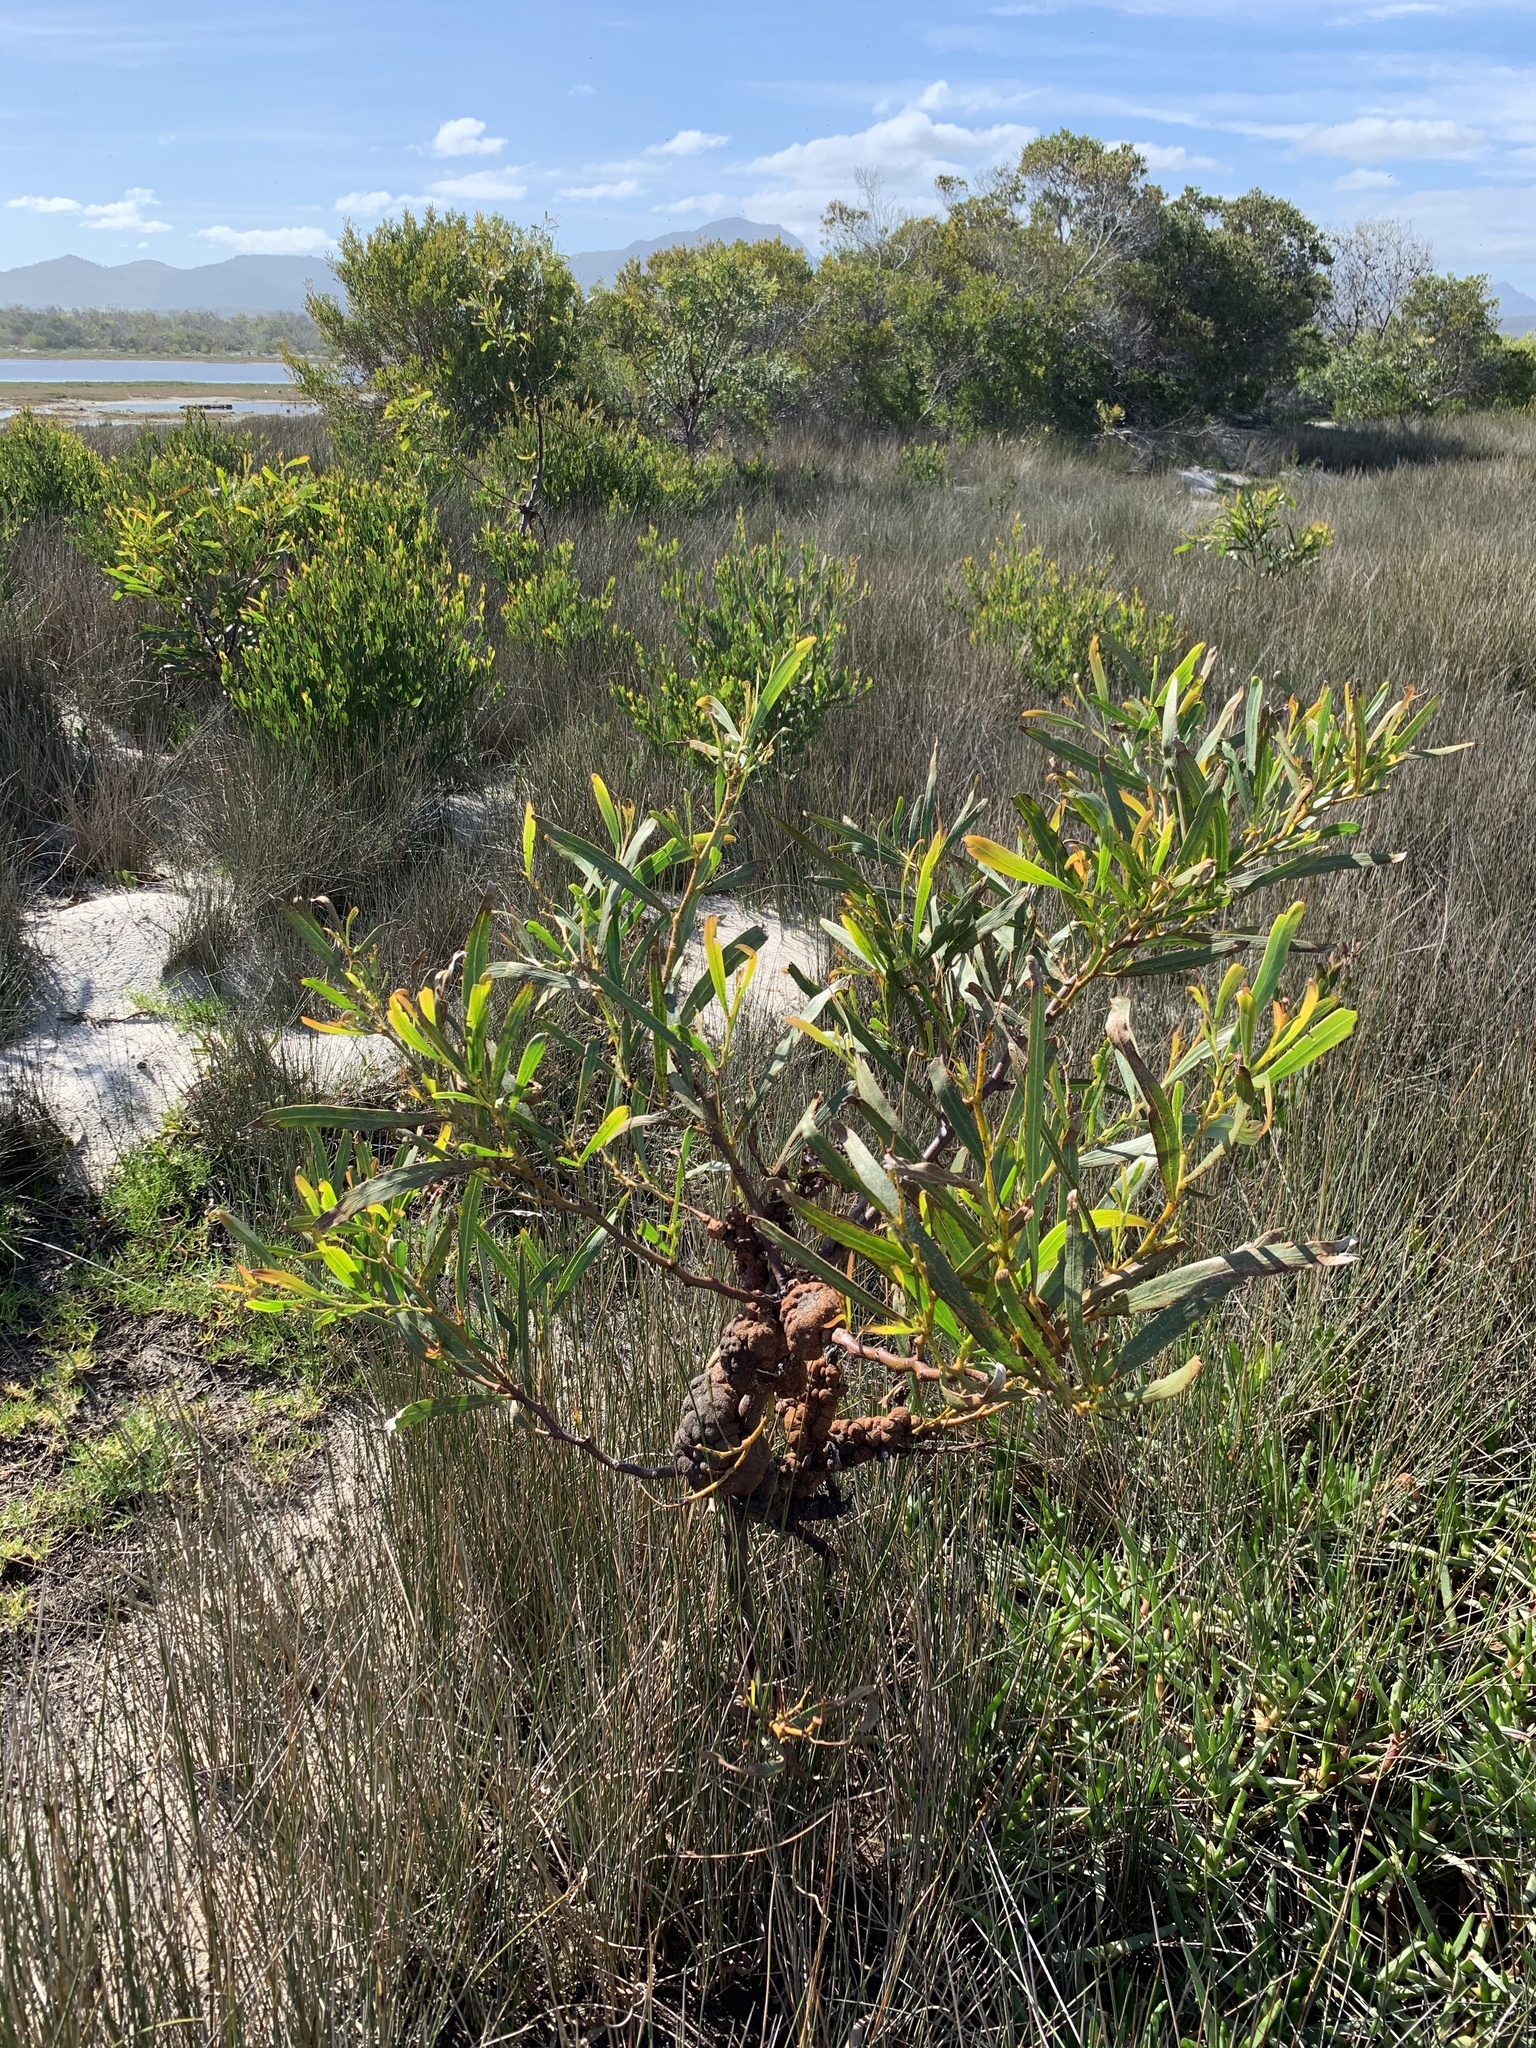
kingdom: Plantae
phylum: Tracheophyta
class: Magnoliopsida
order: Fabales
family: Fabaceae
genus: Acacia
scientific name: Acacia saligna
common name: Orange wattle
